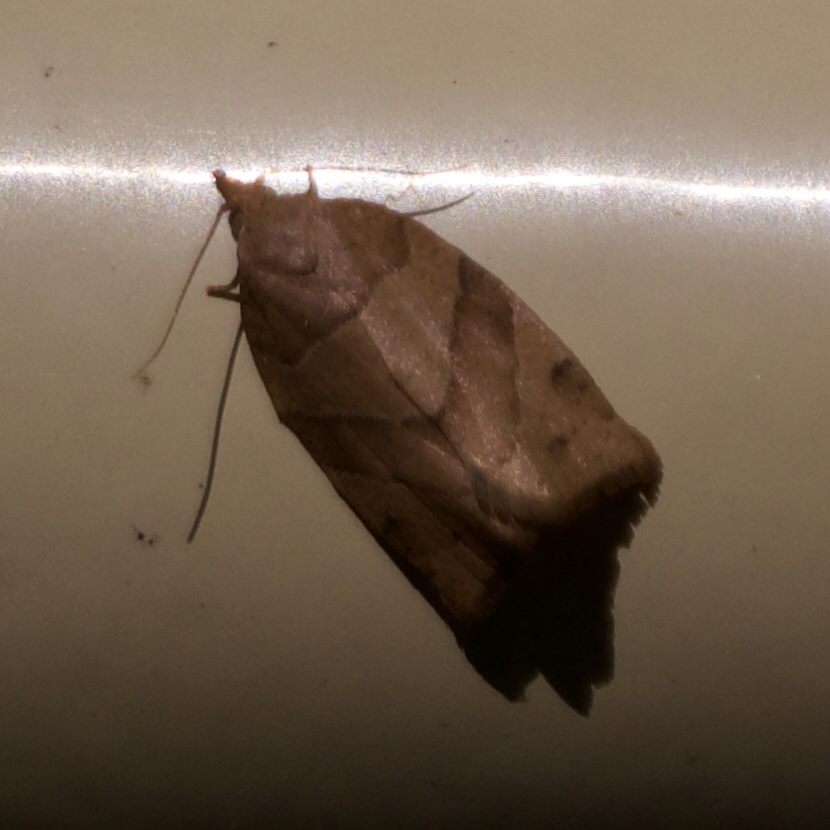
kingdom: Animalia
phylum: Arthropoda
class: Insecta
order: Lepidoptera
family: Tortricidae
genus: Pandemis
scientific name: Pandemis lamprosana
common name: Woodgrain leafroller moth
